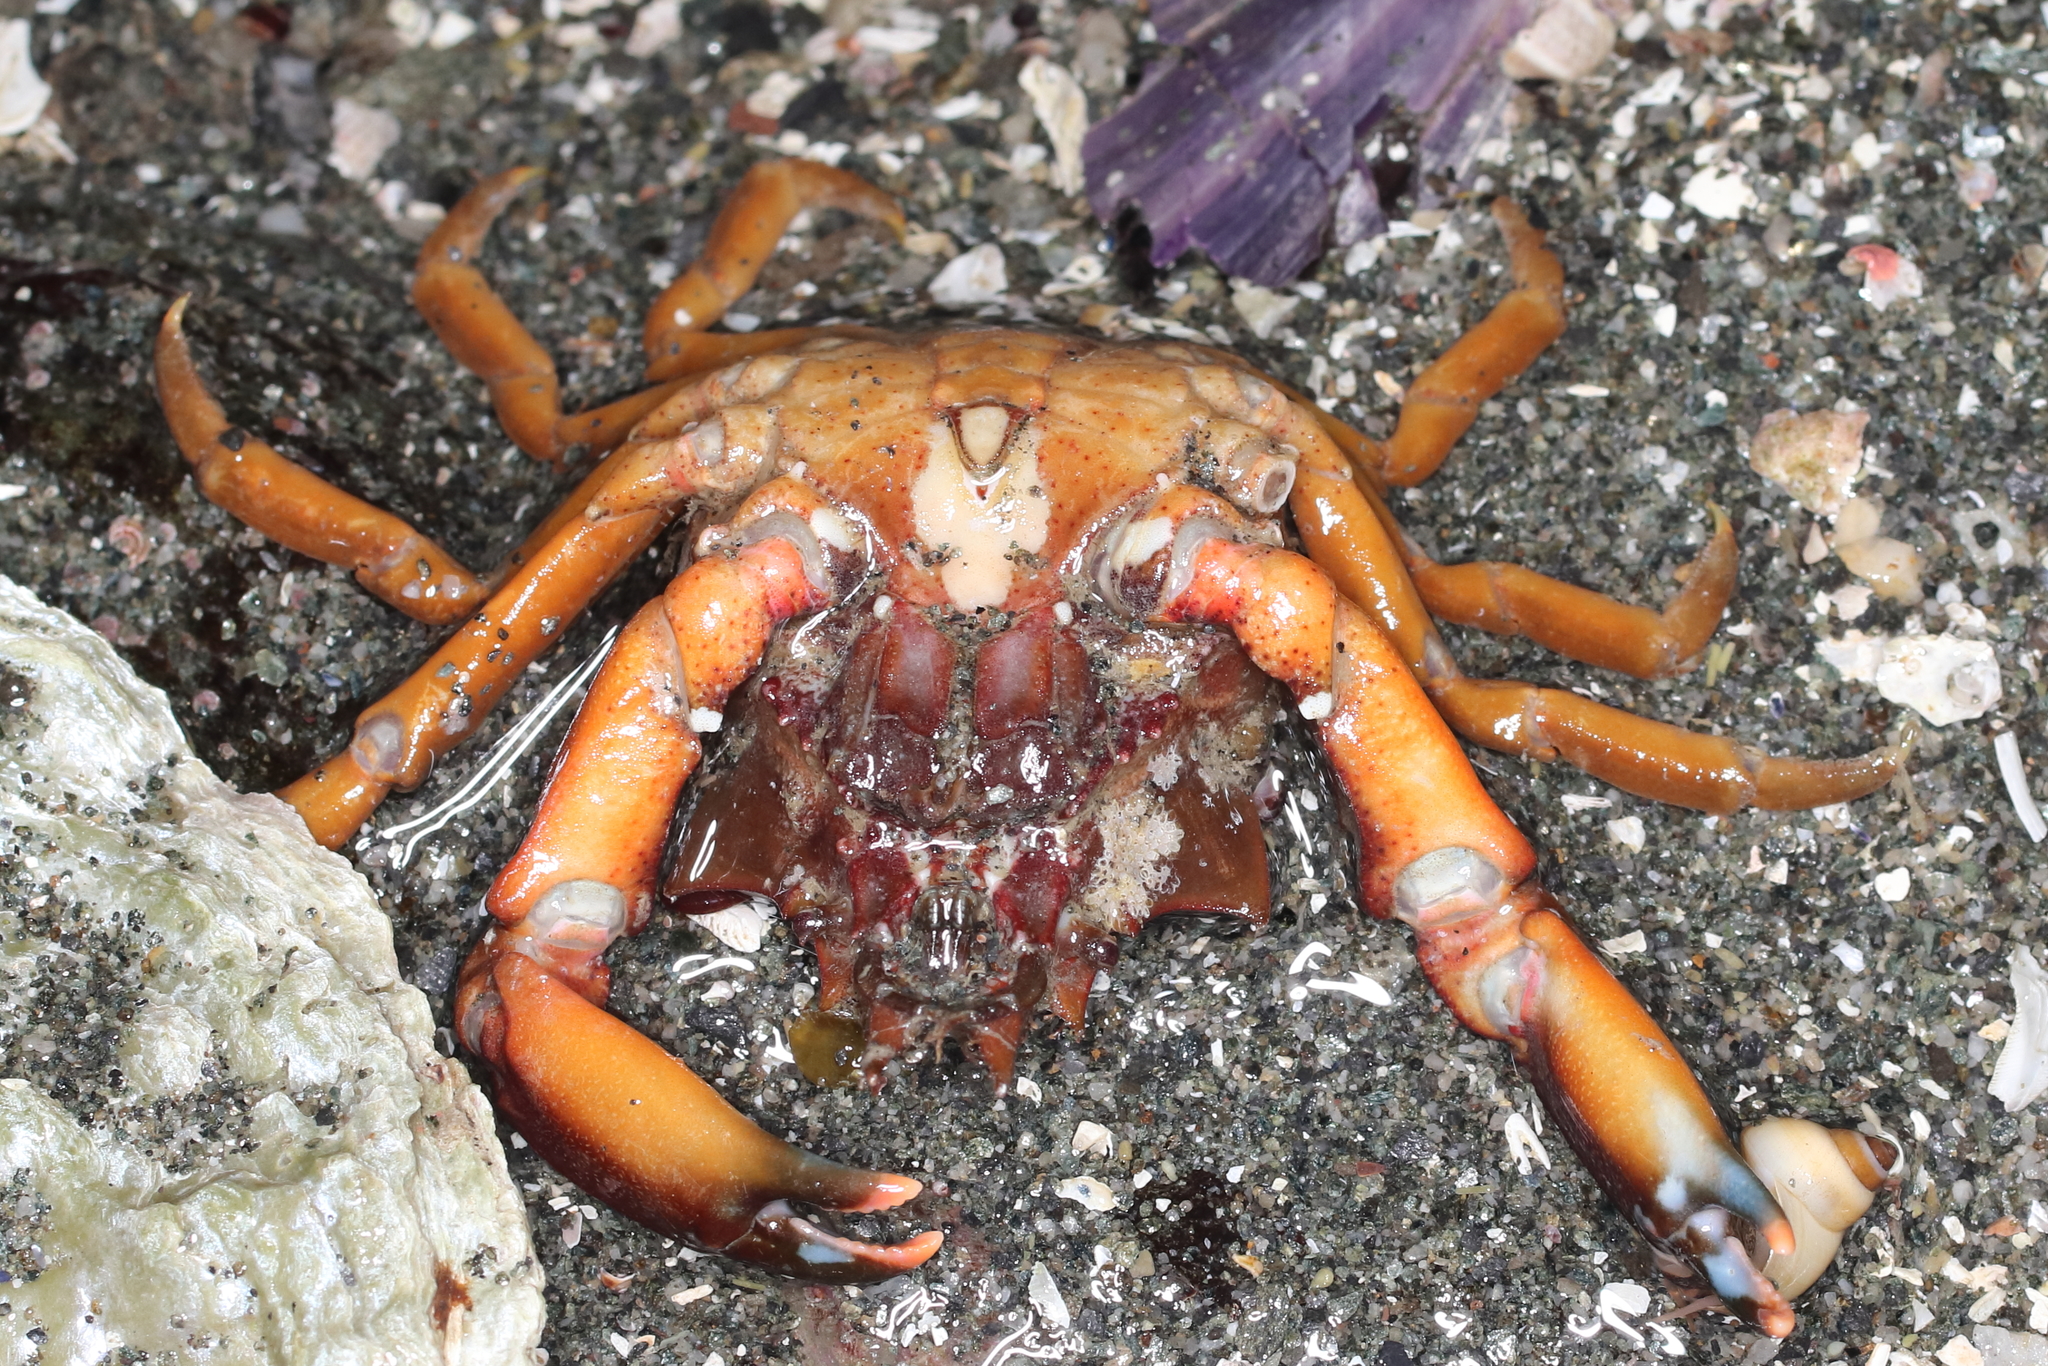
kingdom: Animalia
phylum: Arthropoda
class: Malacostraca
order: Decapoda
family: Epialtidae
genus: Pugettia
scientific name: Pugettia gracilis
